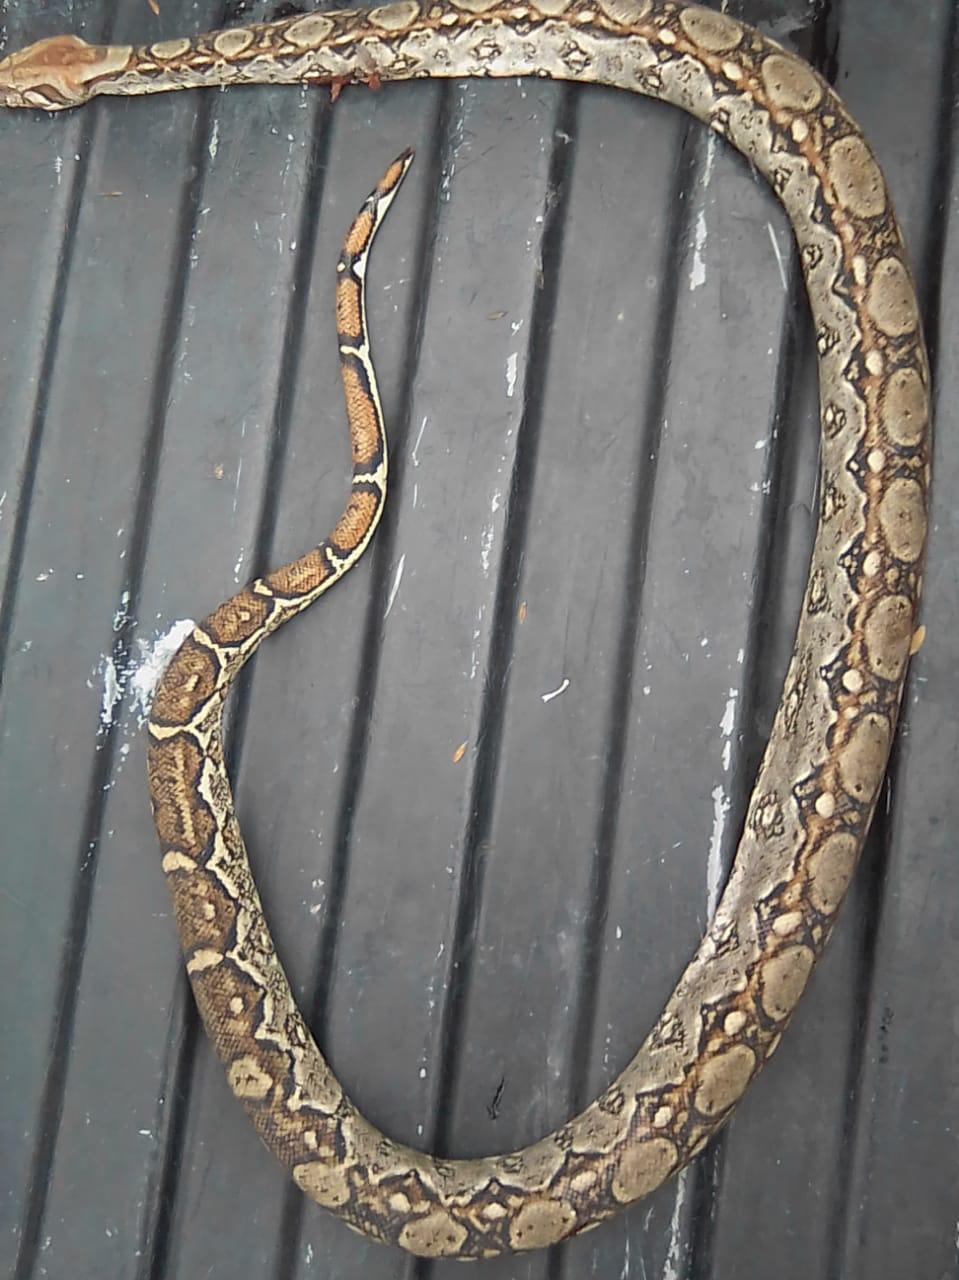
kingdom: Animalia
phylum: Chordata
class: Squamata
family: Boidae
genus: Boa
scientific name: Boa
